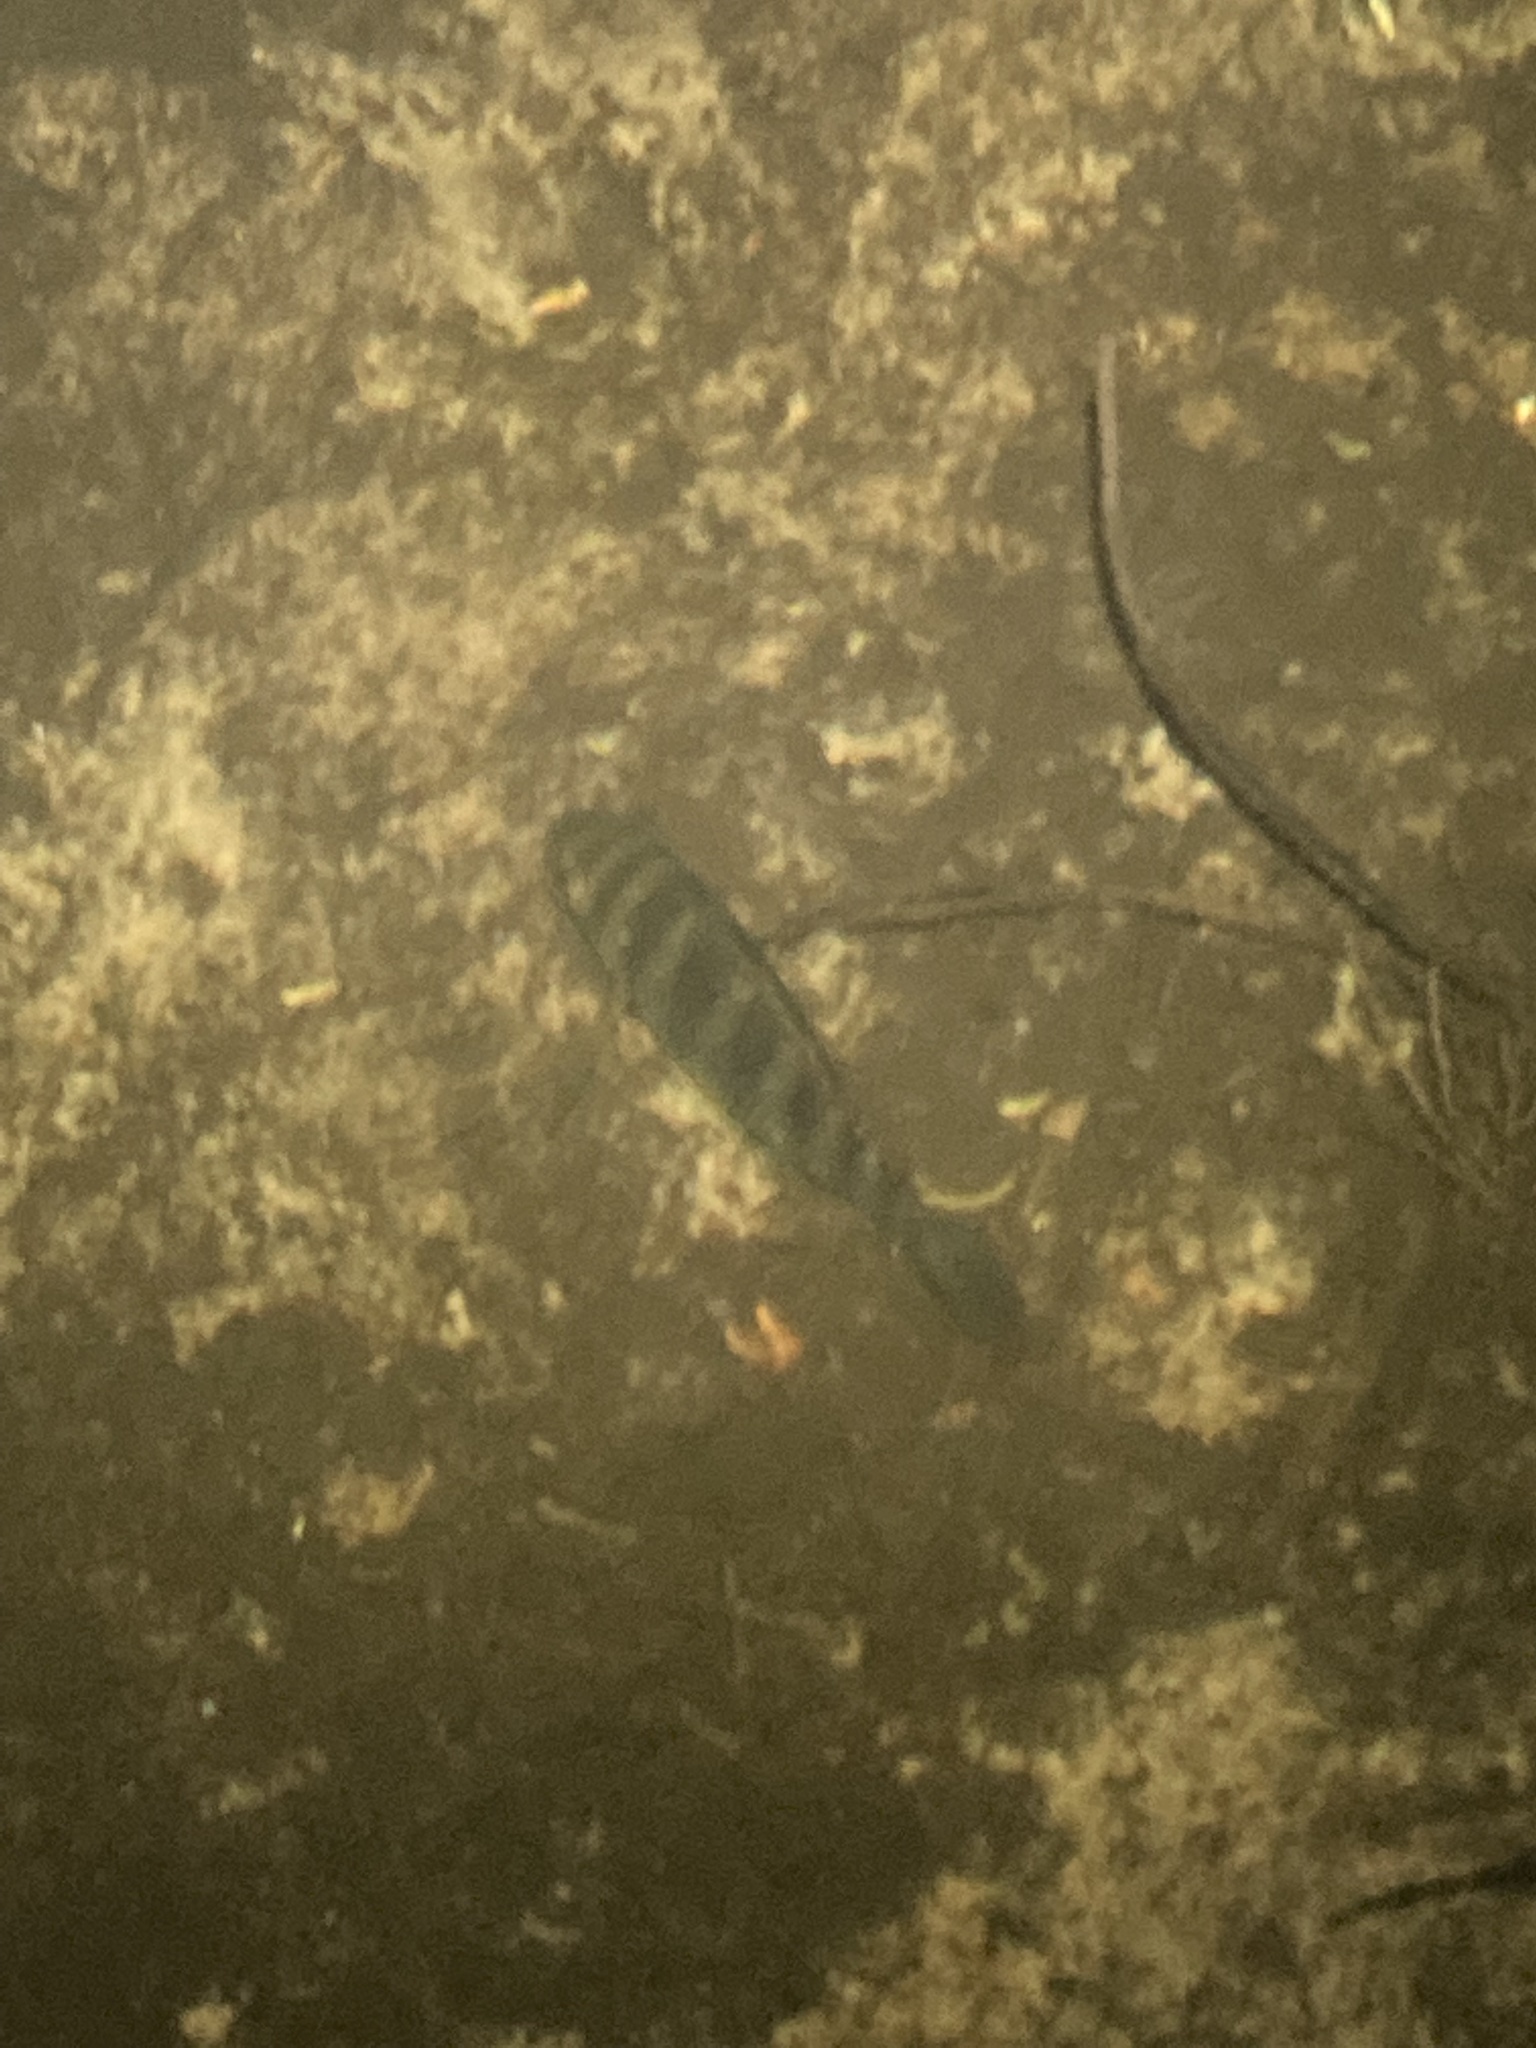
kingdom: Animalia
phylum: Chordata
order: Perciformes
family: Cichlidae
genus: Pelmatolapia
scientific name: Pelmatolapia mariae
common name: Spotted tilapia
